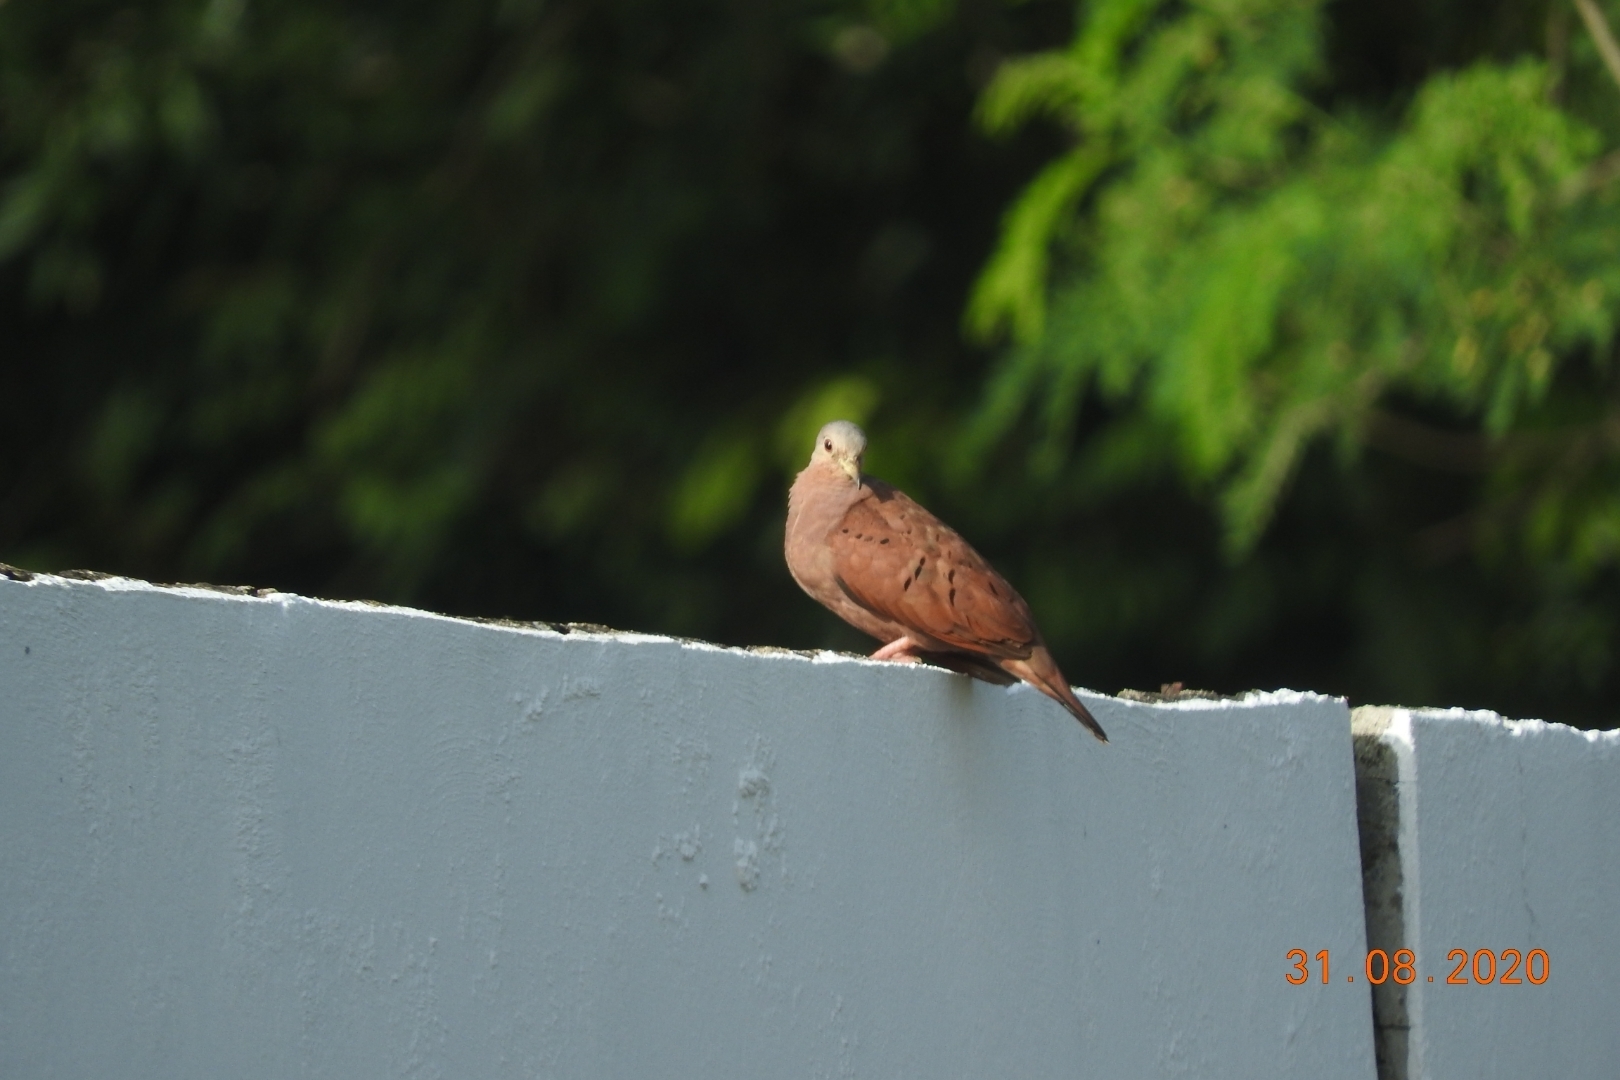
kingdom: Animalia
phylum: Chordata
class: Aves
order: Columbiformes
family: Columbidae
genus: Columbina
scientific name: Columbina talpacoti
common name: Ruddy ground dove
